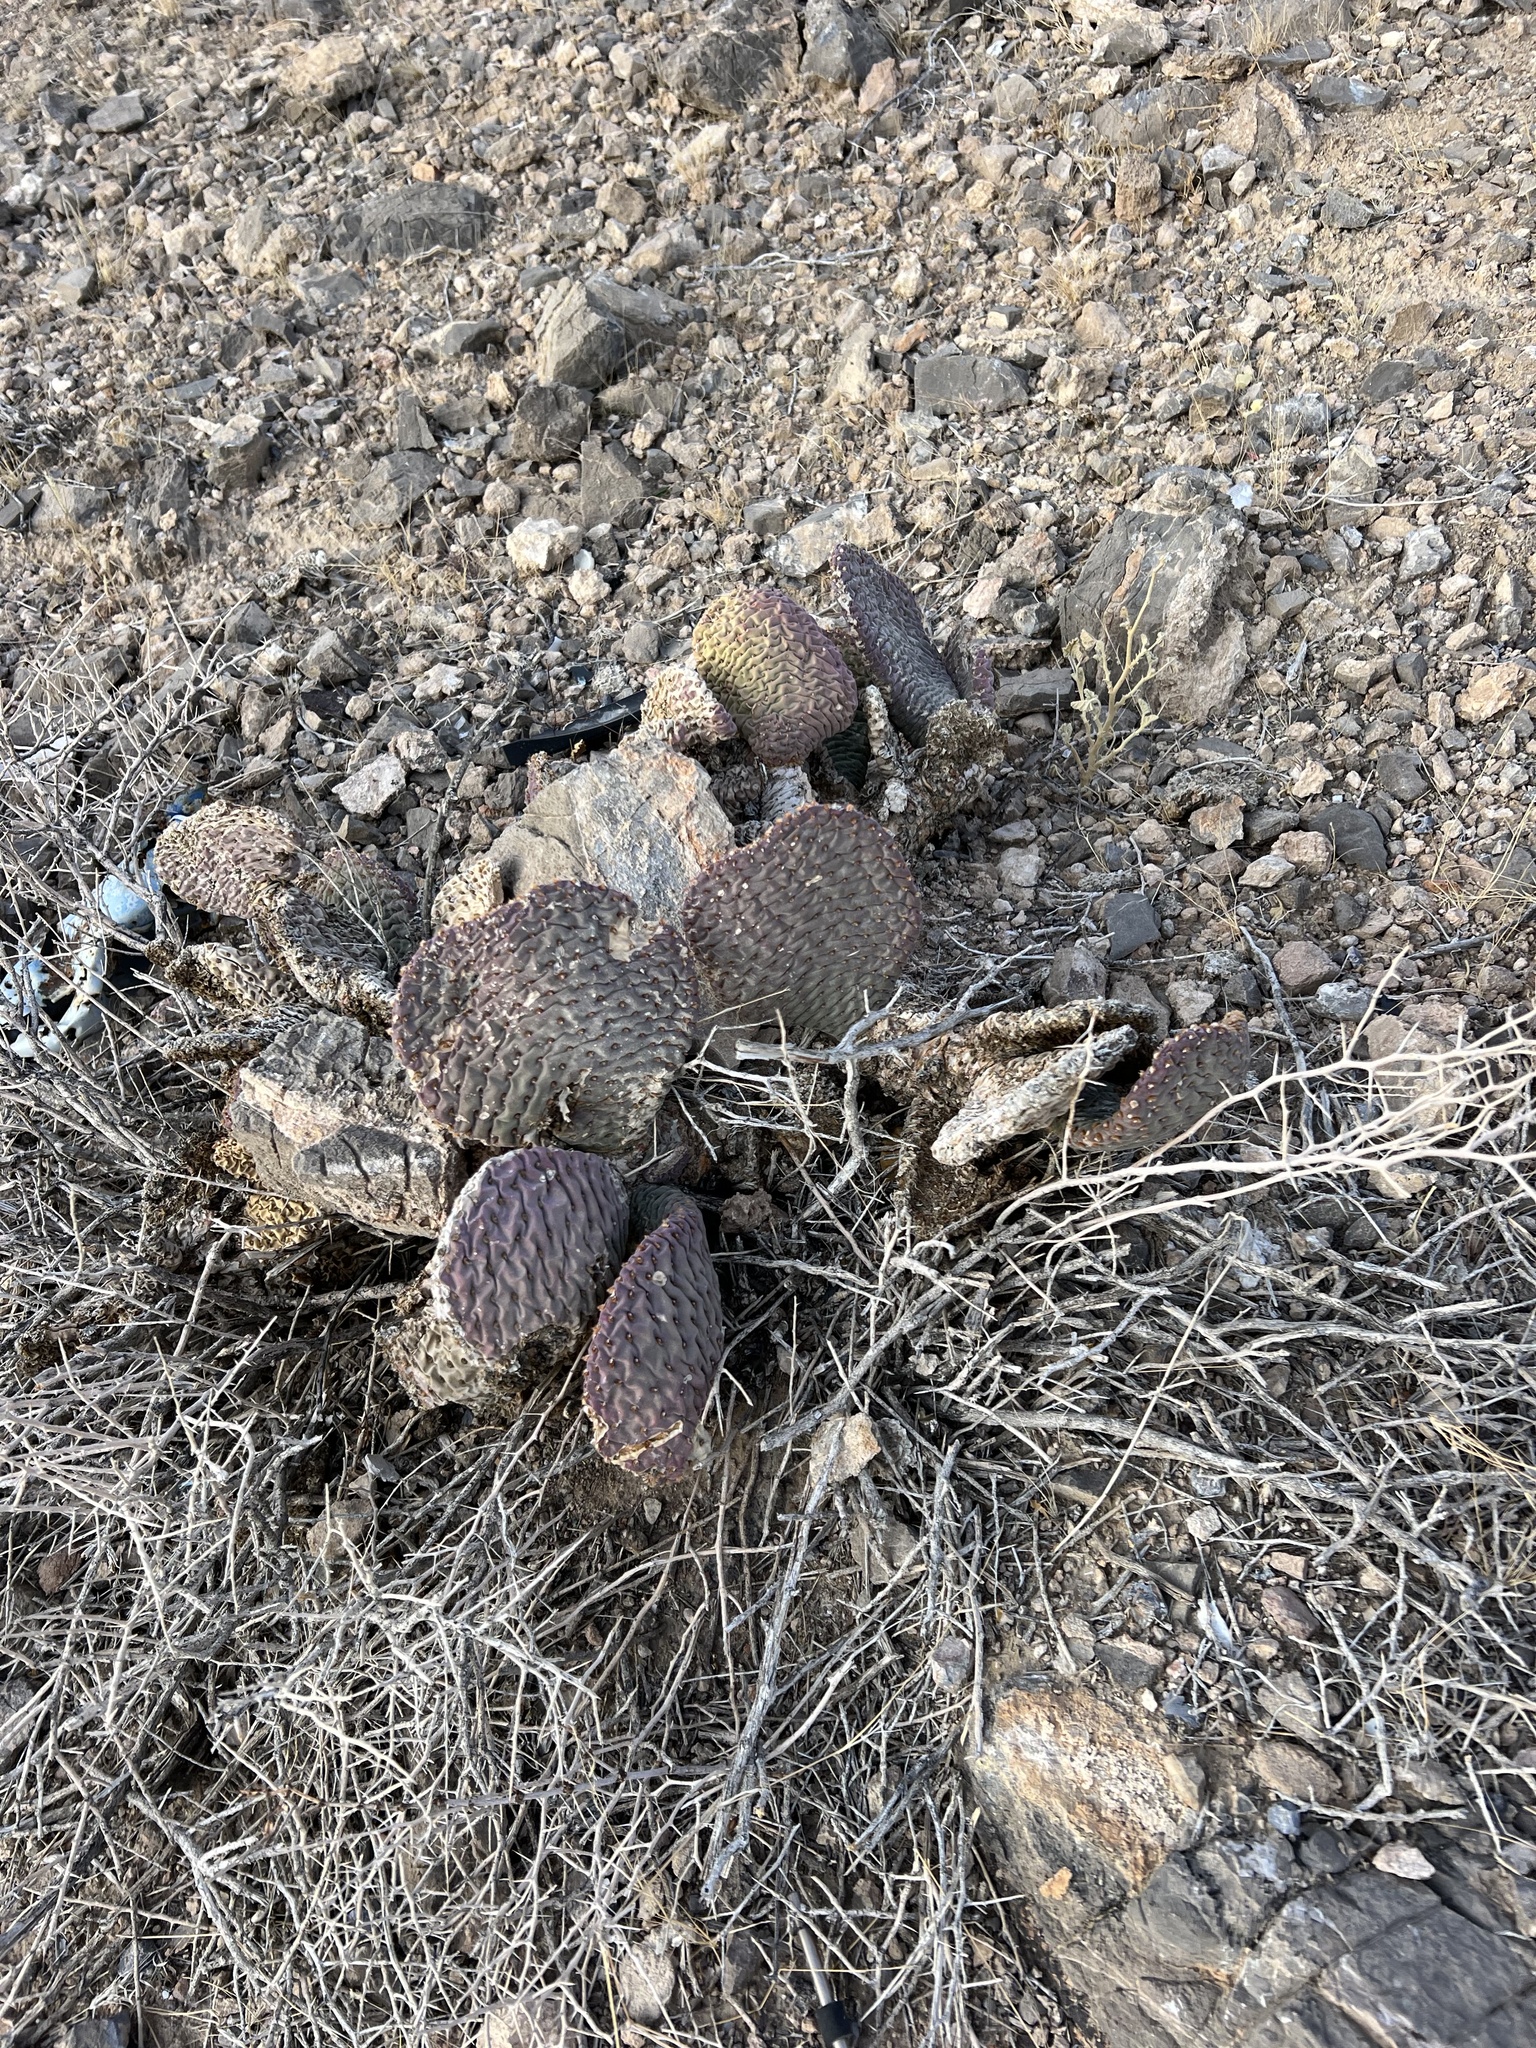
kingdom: Plantae
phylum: Tracheophyta
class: Magnoliopsida
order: Caryophyllales
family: Cactaceae
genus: Opuntia
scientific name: Opuntia basilaris
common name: Beavertail prickly-pear
